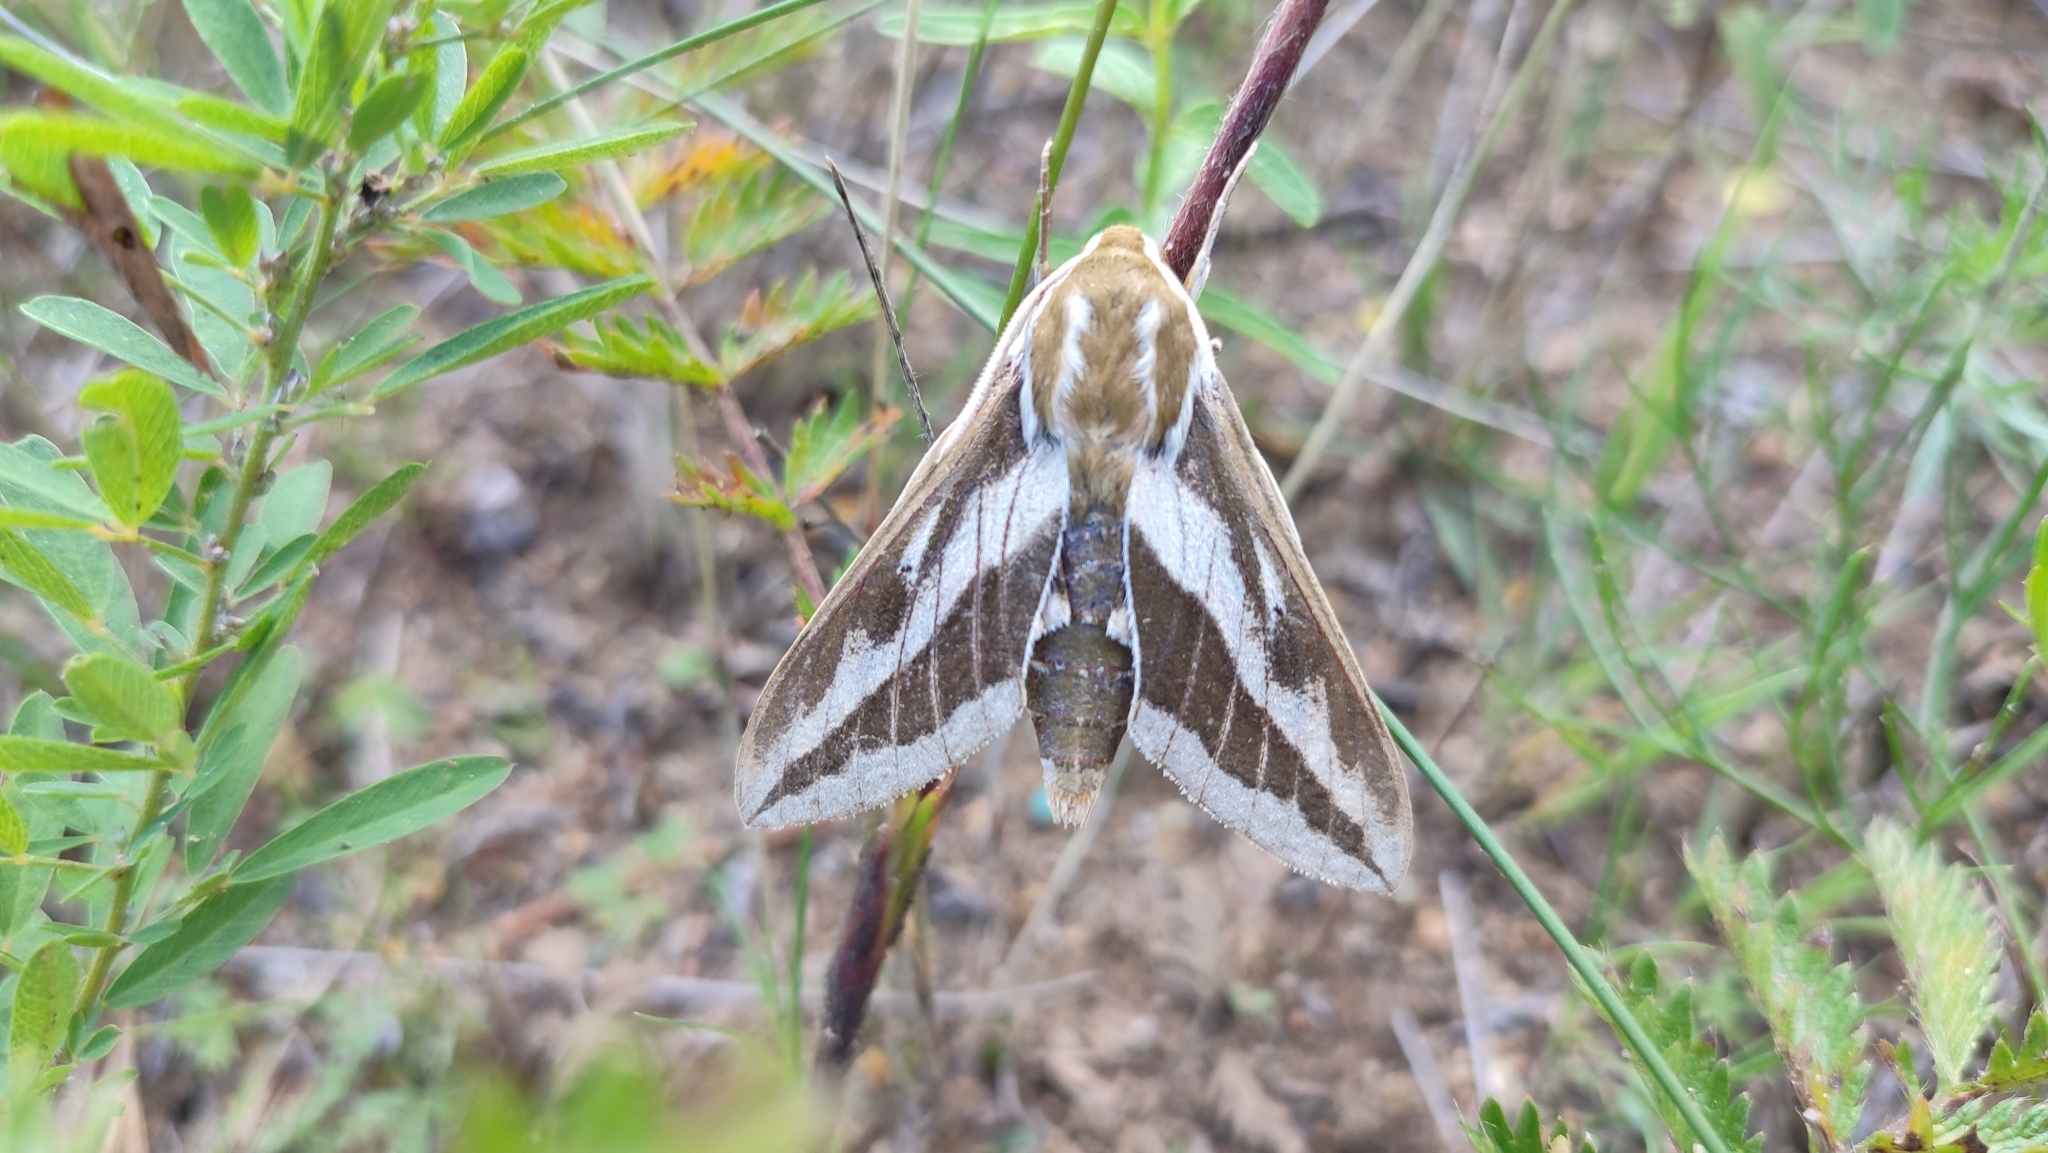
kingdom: Animalia
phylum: Arthropoda
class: Insecta
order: Lepidoptera
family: Sphingidae
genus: Hyles
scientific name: Hyles costata
